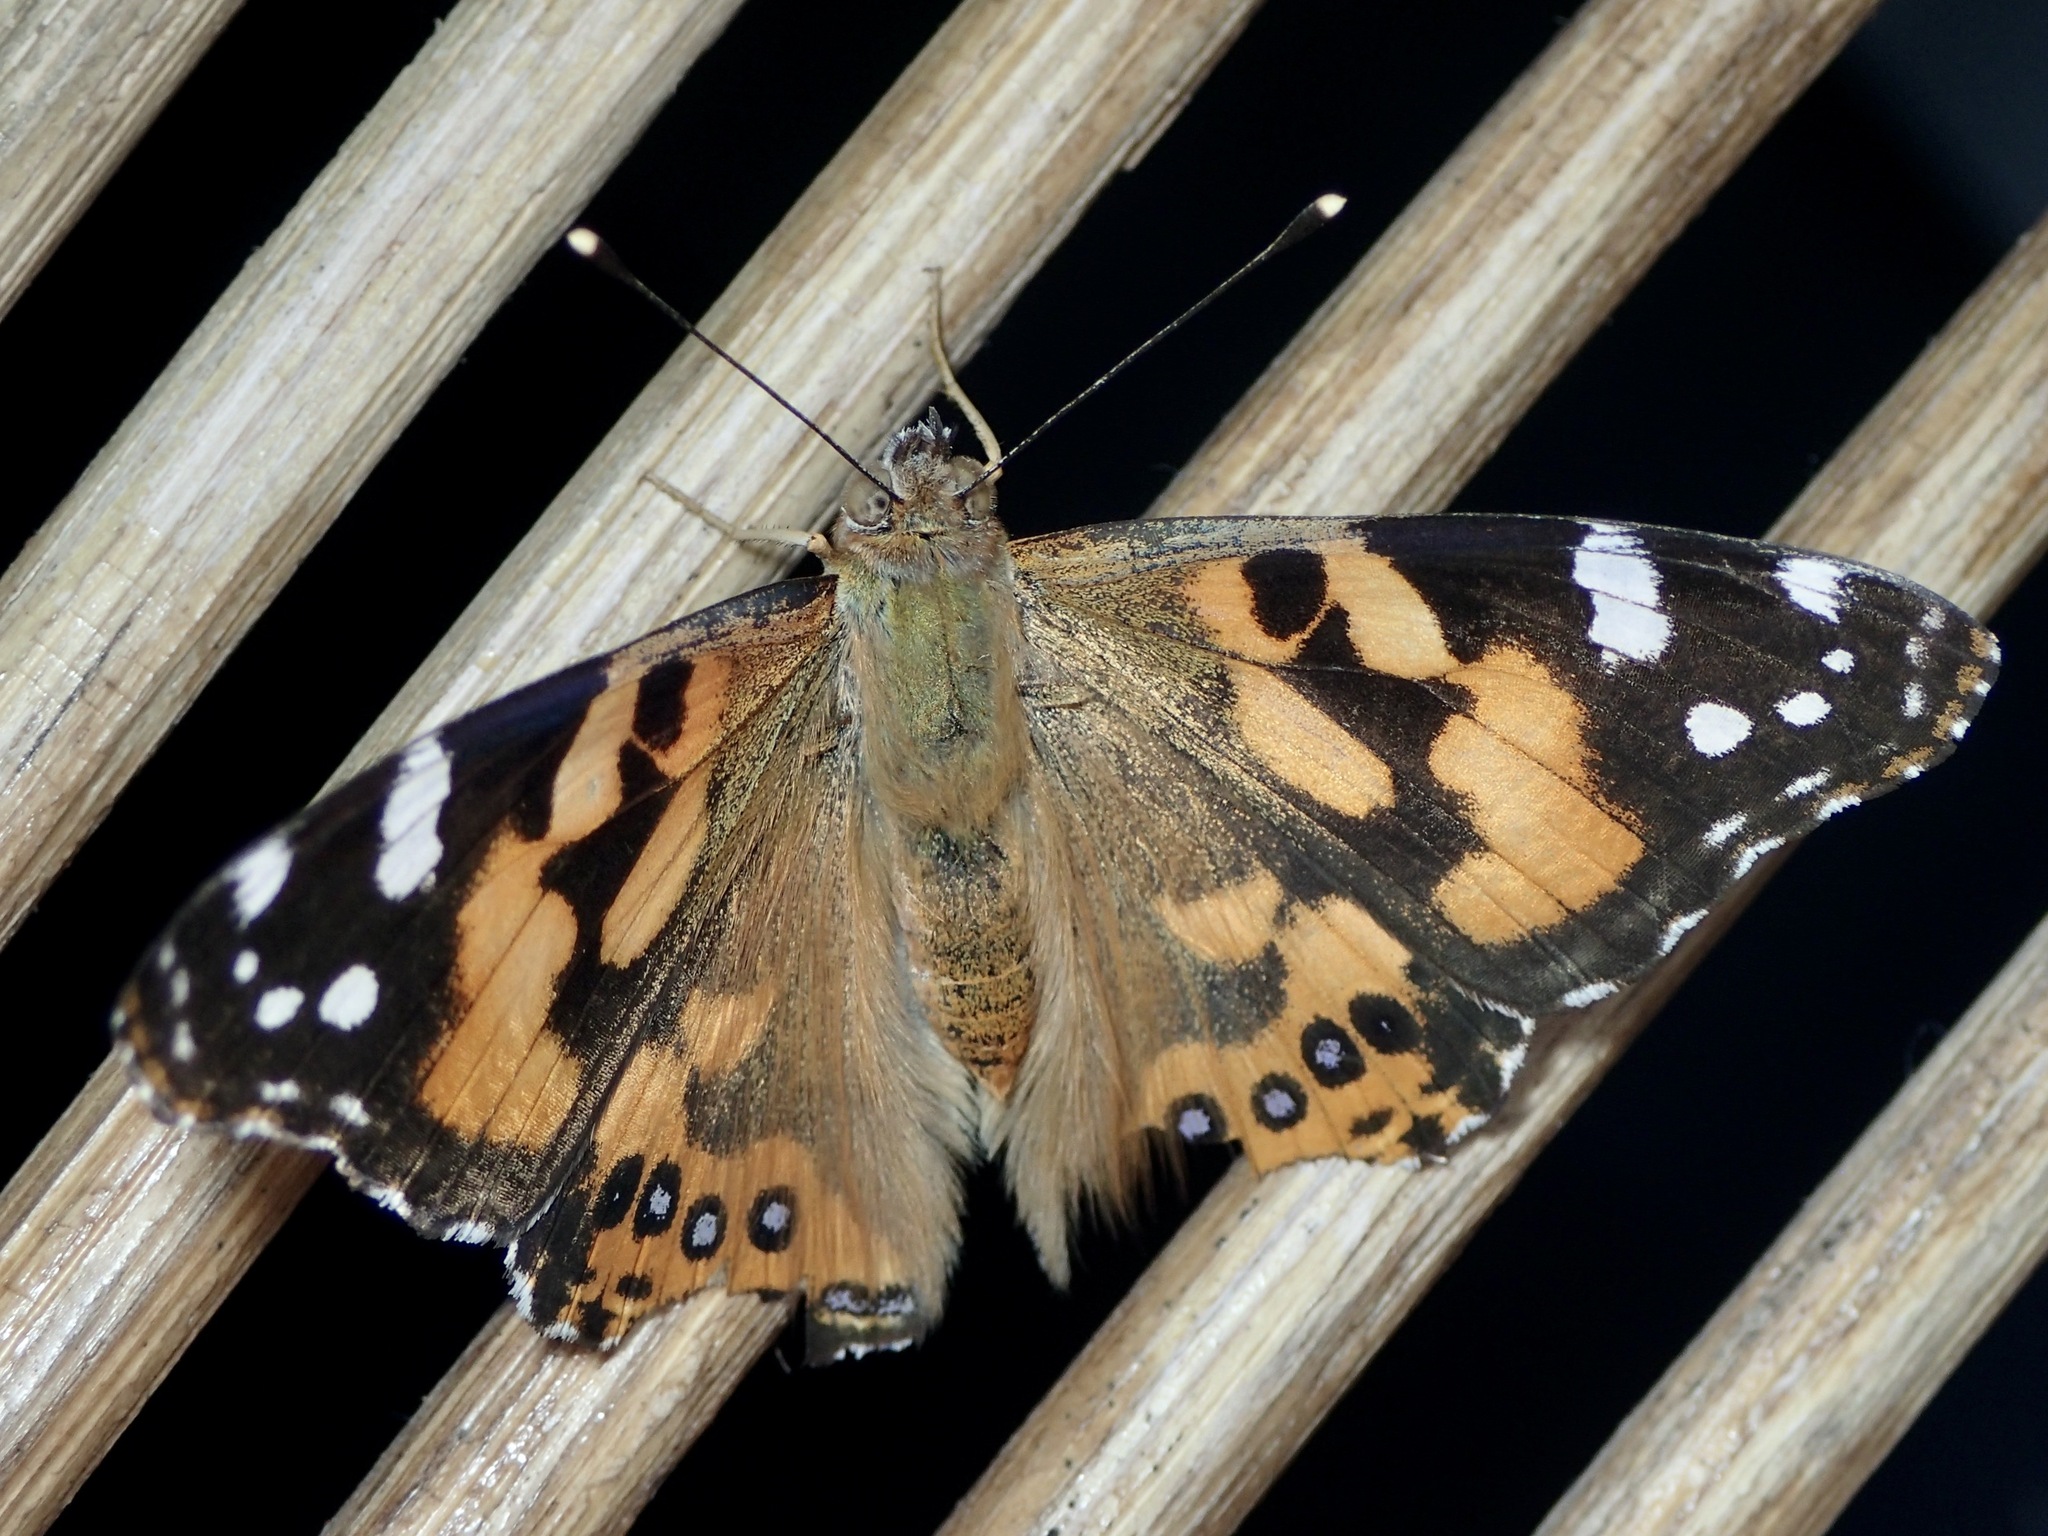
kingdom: Animalia
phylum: Arthropoda
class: Insecta
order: Lepidoptera
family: Nymphalidae
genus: Vanessa
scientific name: Vanessa kershawi
